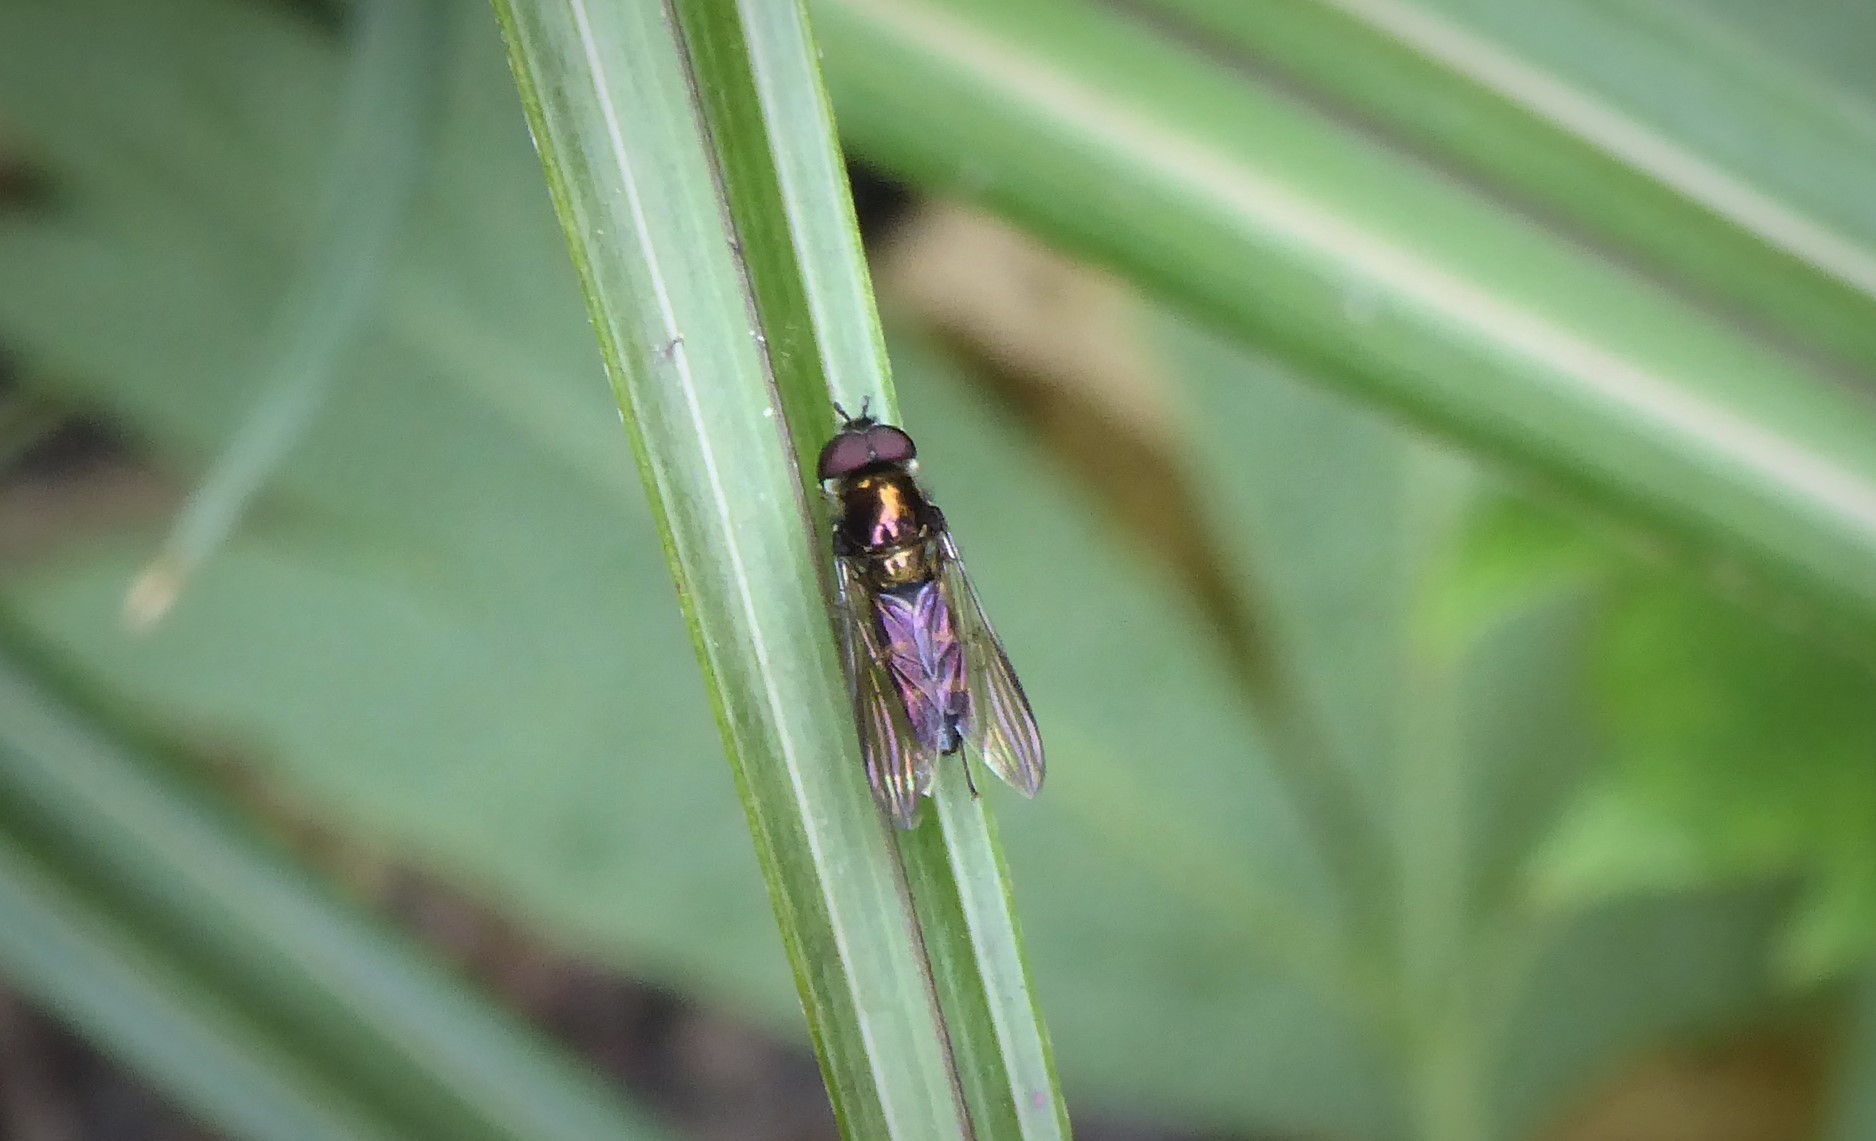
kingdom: Animalia
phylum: Arthropoda
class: Insecta
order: Diptera
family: Syrphidae
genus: Melangyna
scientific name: Melangyna novaezelandiae
